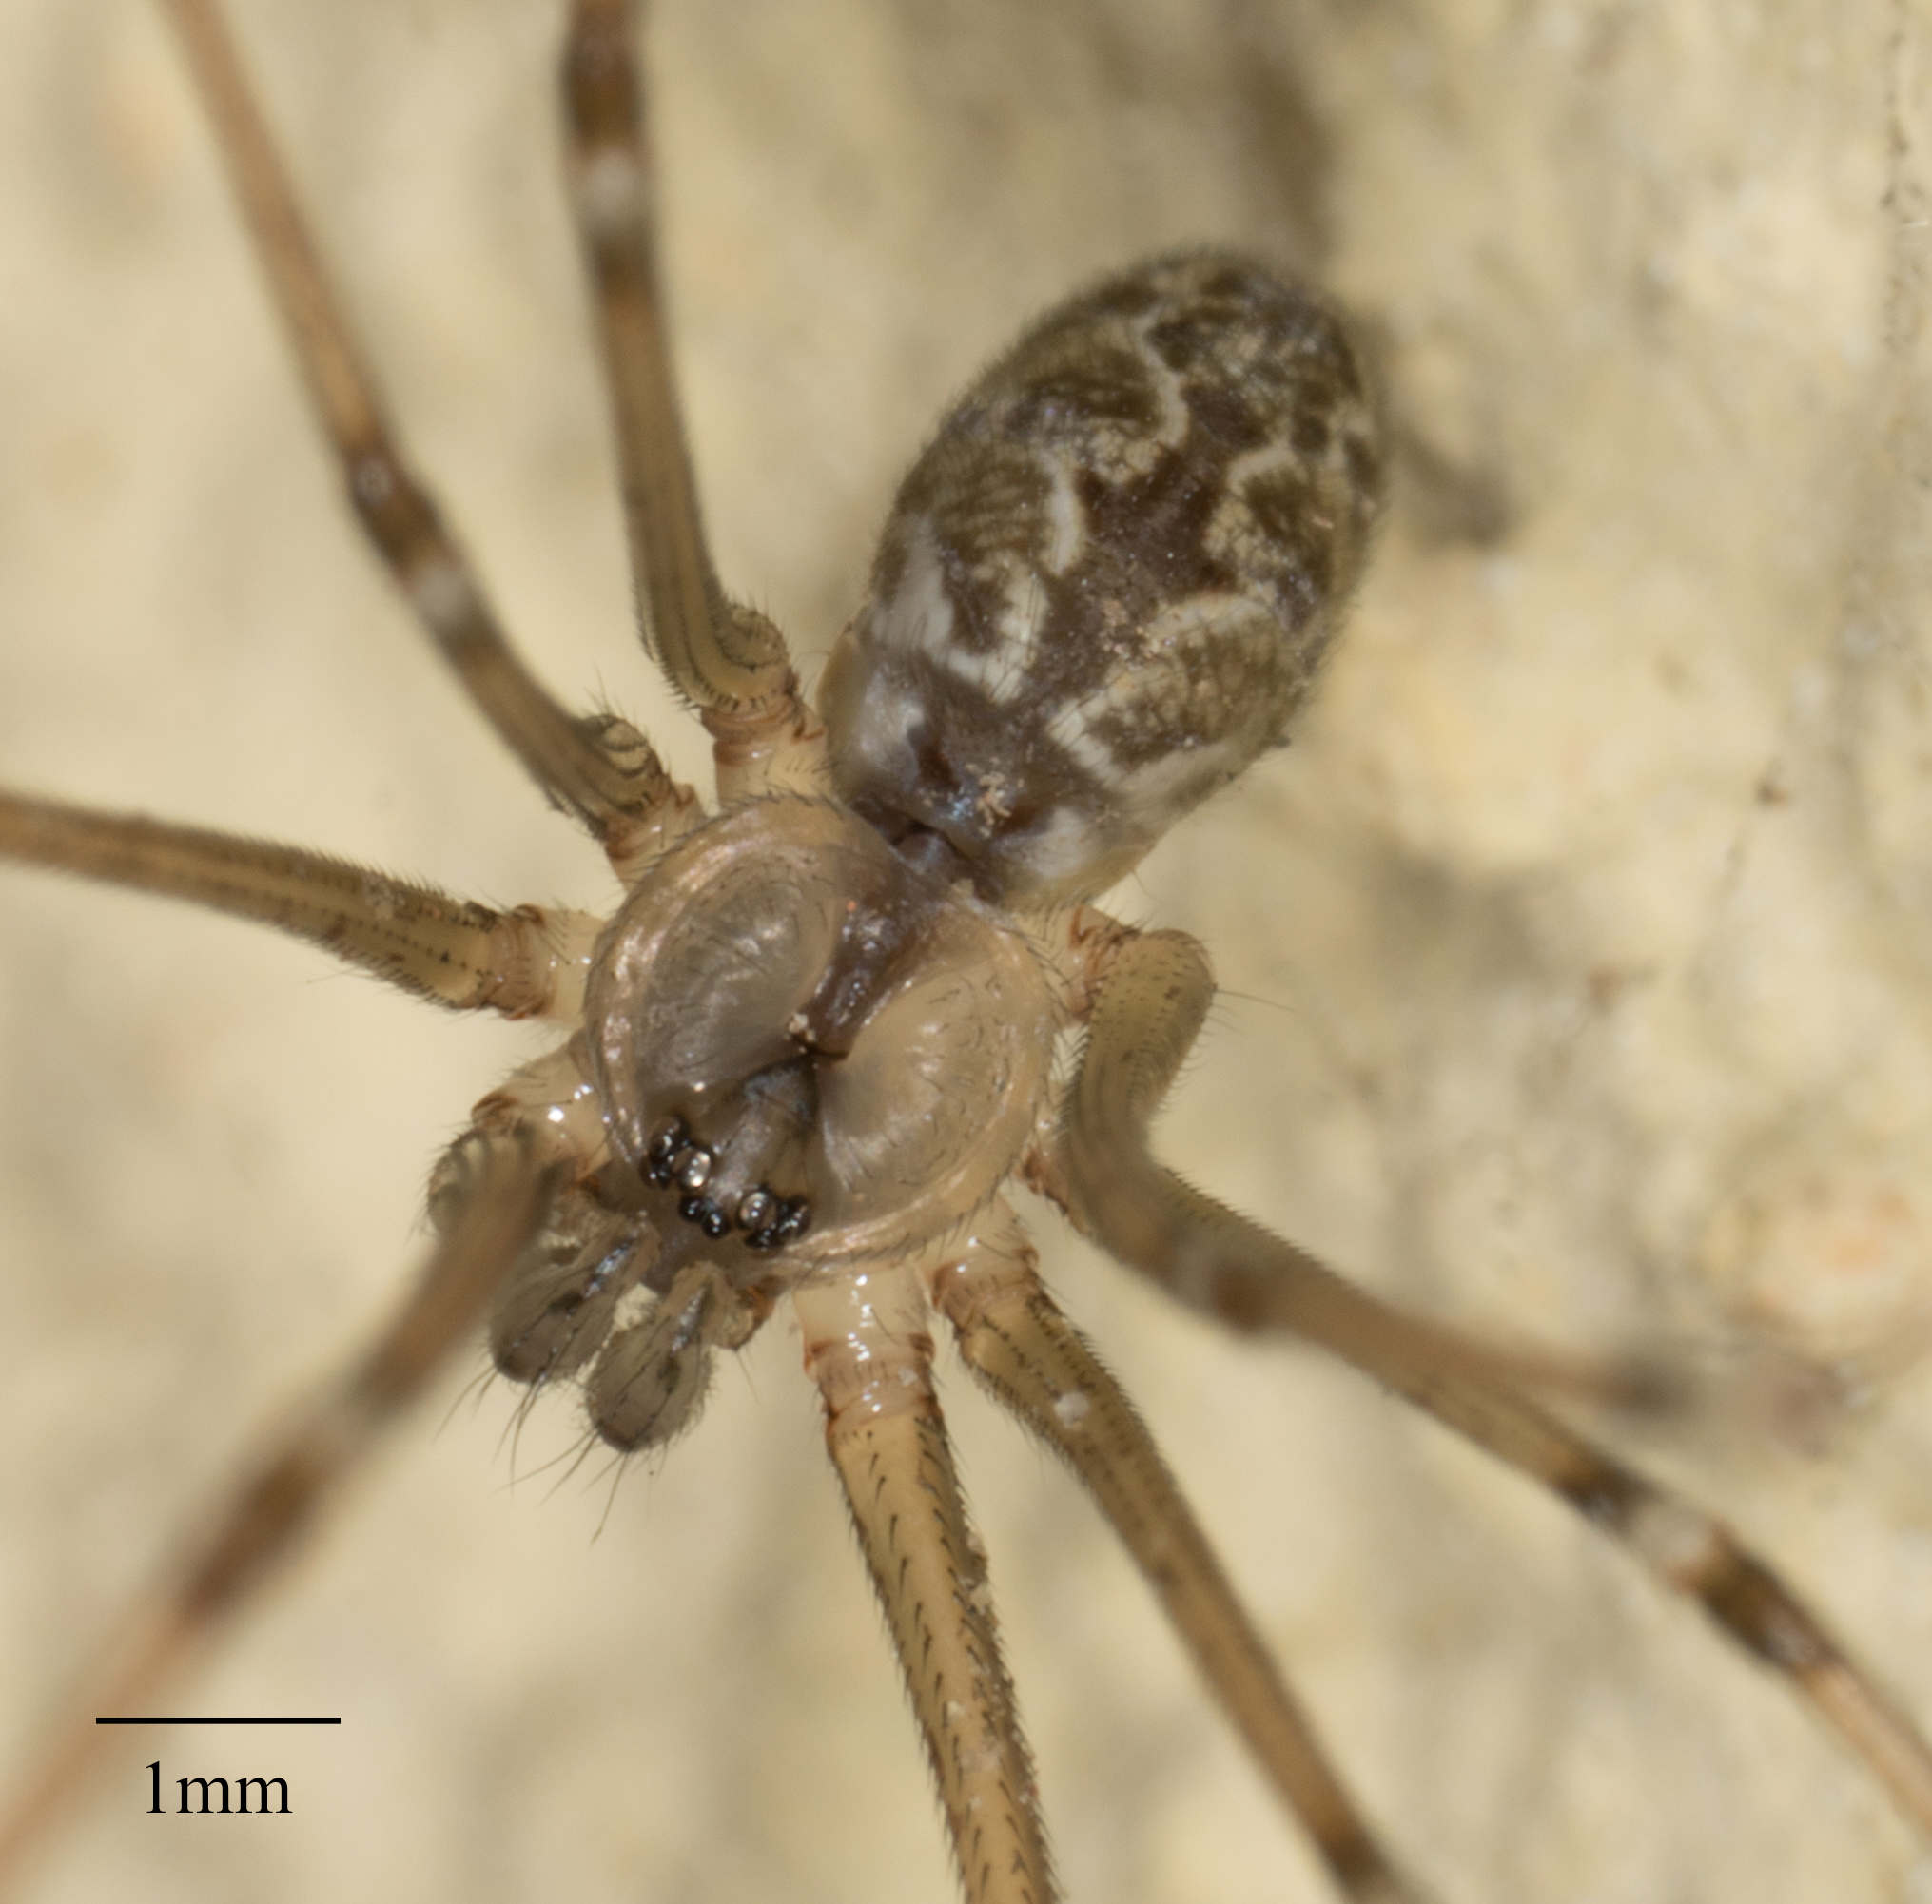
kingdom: Animalia
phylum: Arthropoda
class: Arachnida
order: Araneae
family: Pholcidae
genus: Holocnemus
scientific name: Holocnemus pluchei
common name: Marbled cellar spider
